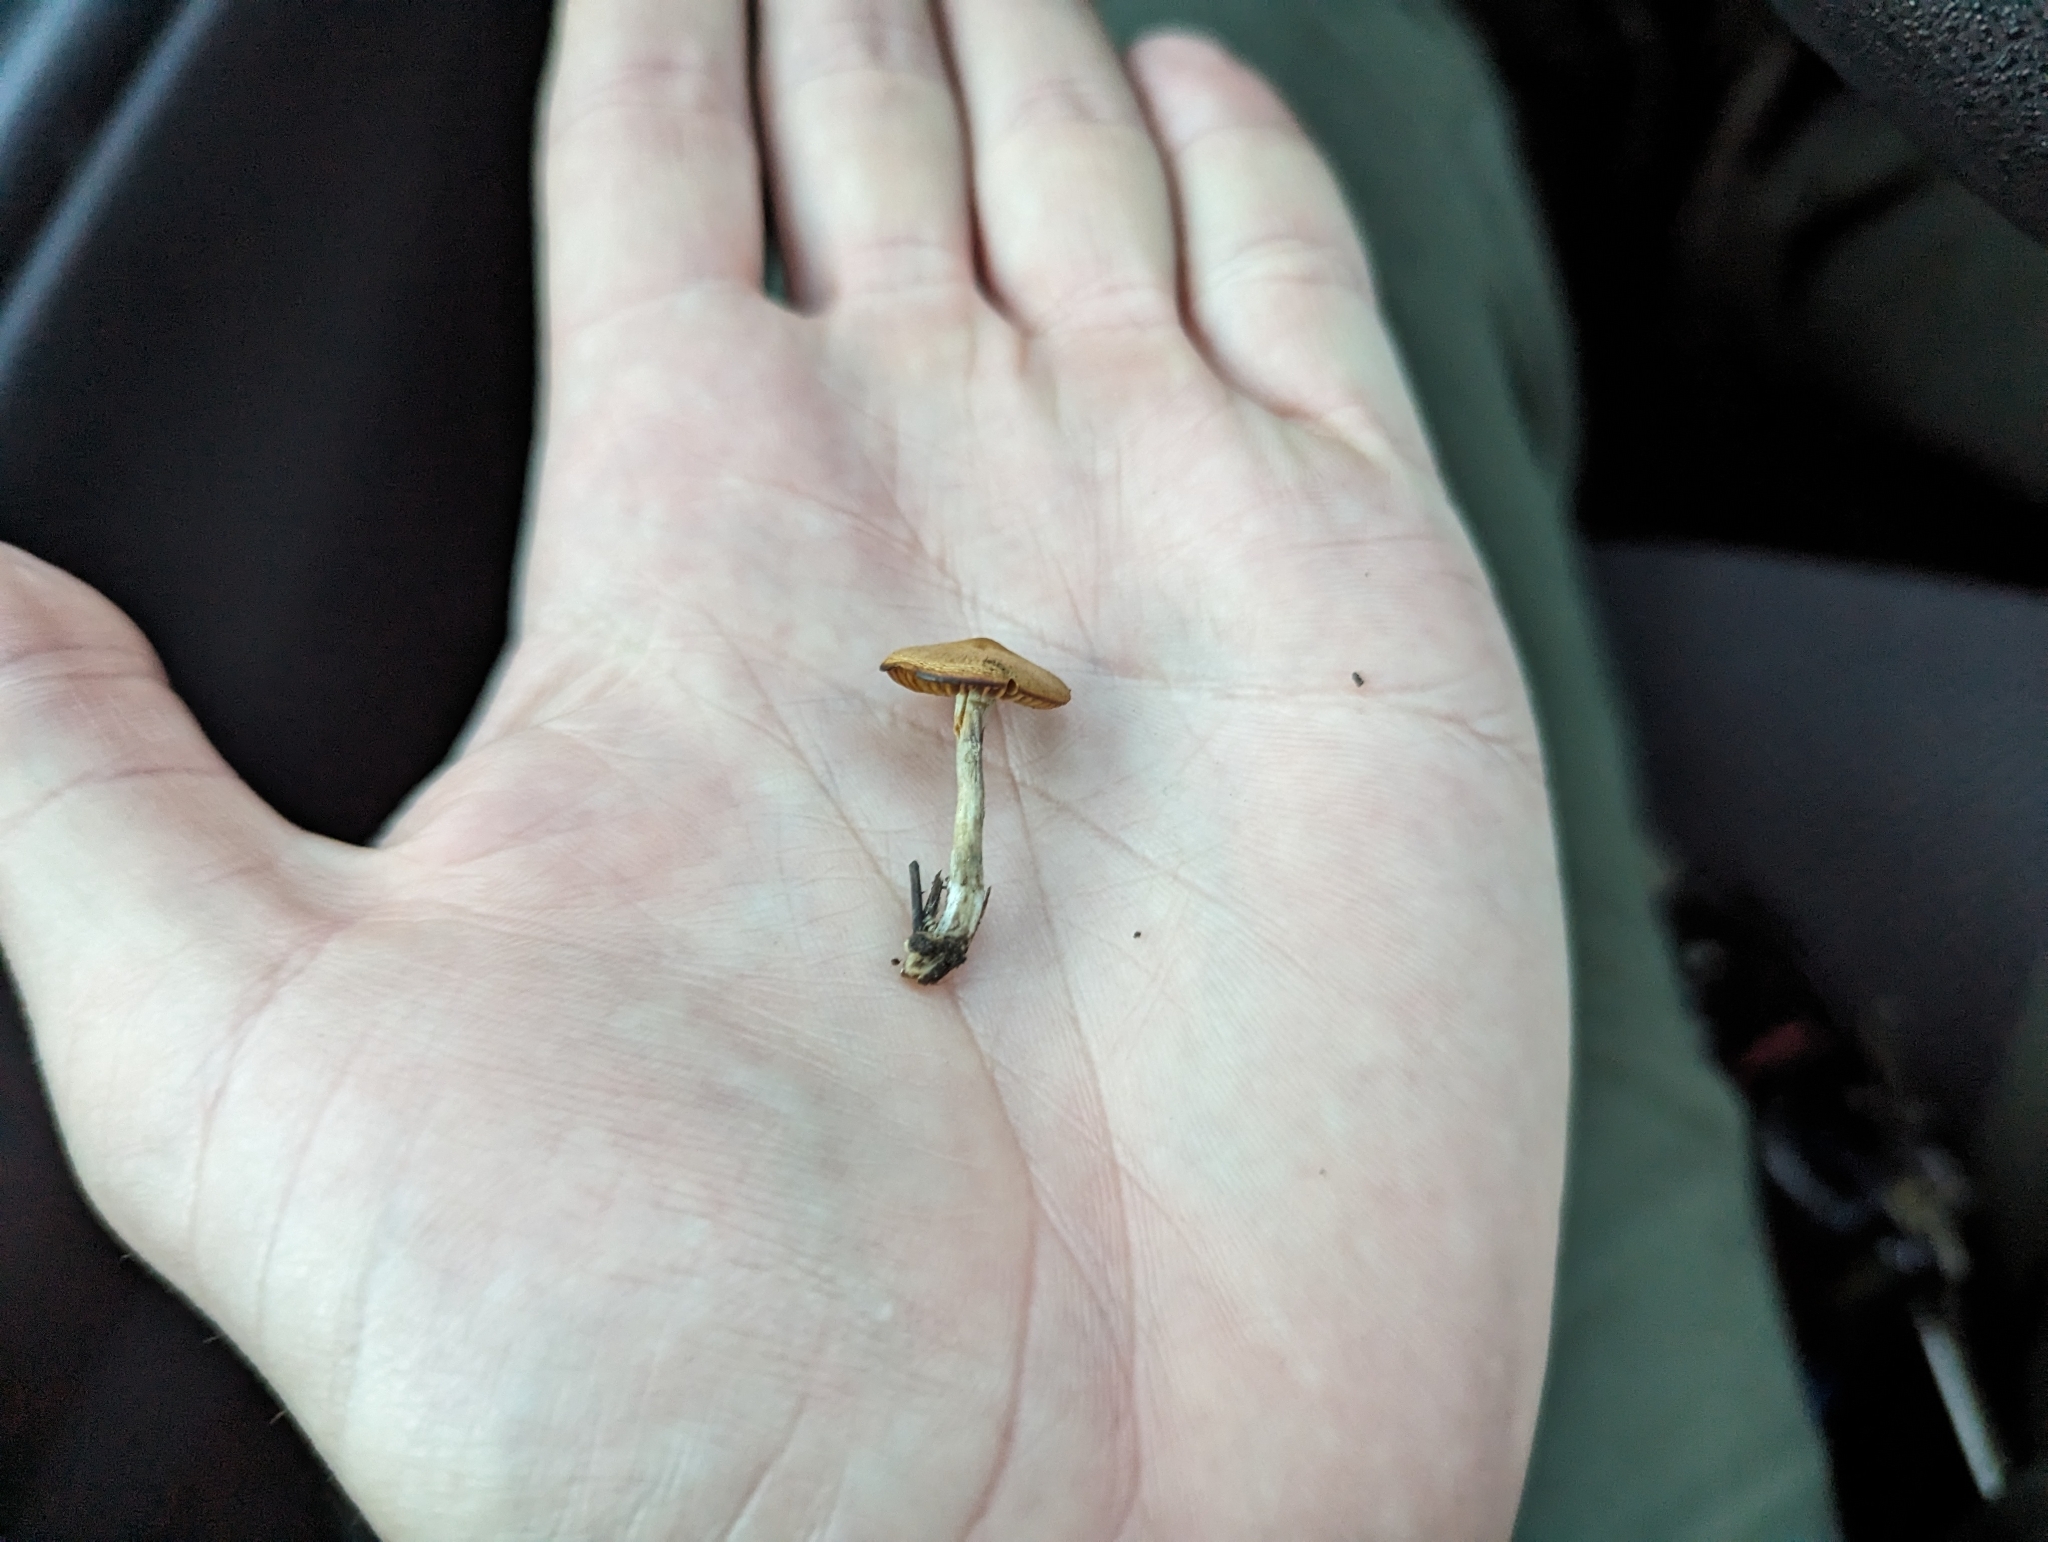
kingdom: Fungi
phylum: Basidiomycota
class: Agaricomycetes
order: Agaricales
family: Hymenogastraceae
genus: Psilocybe
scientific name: Psilocybe allenii
